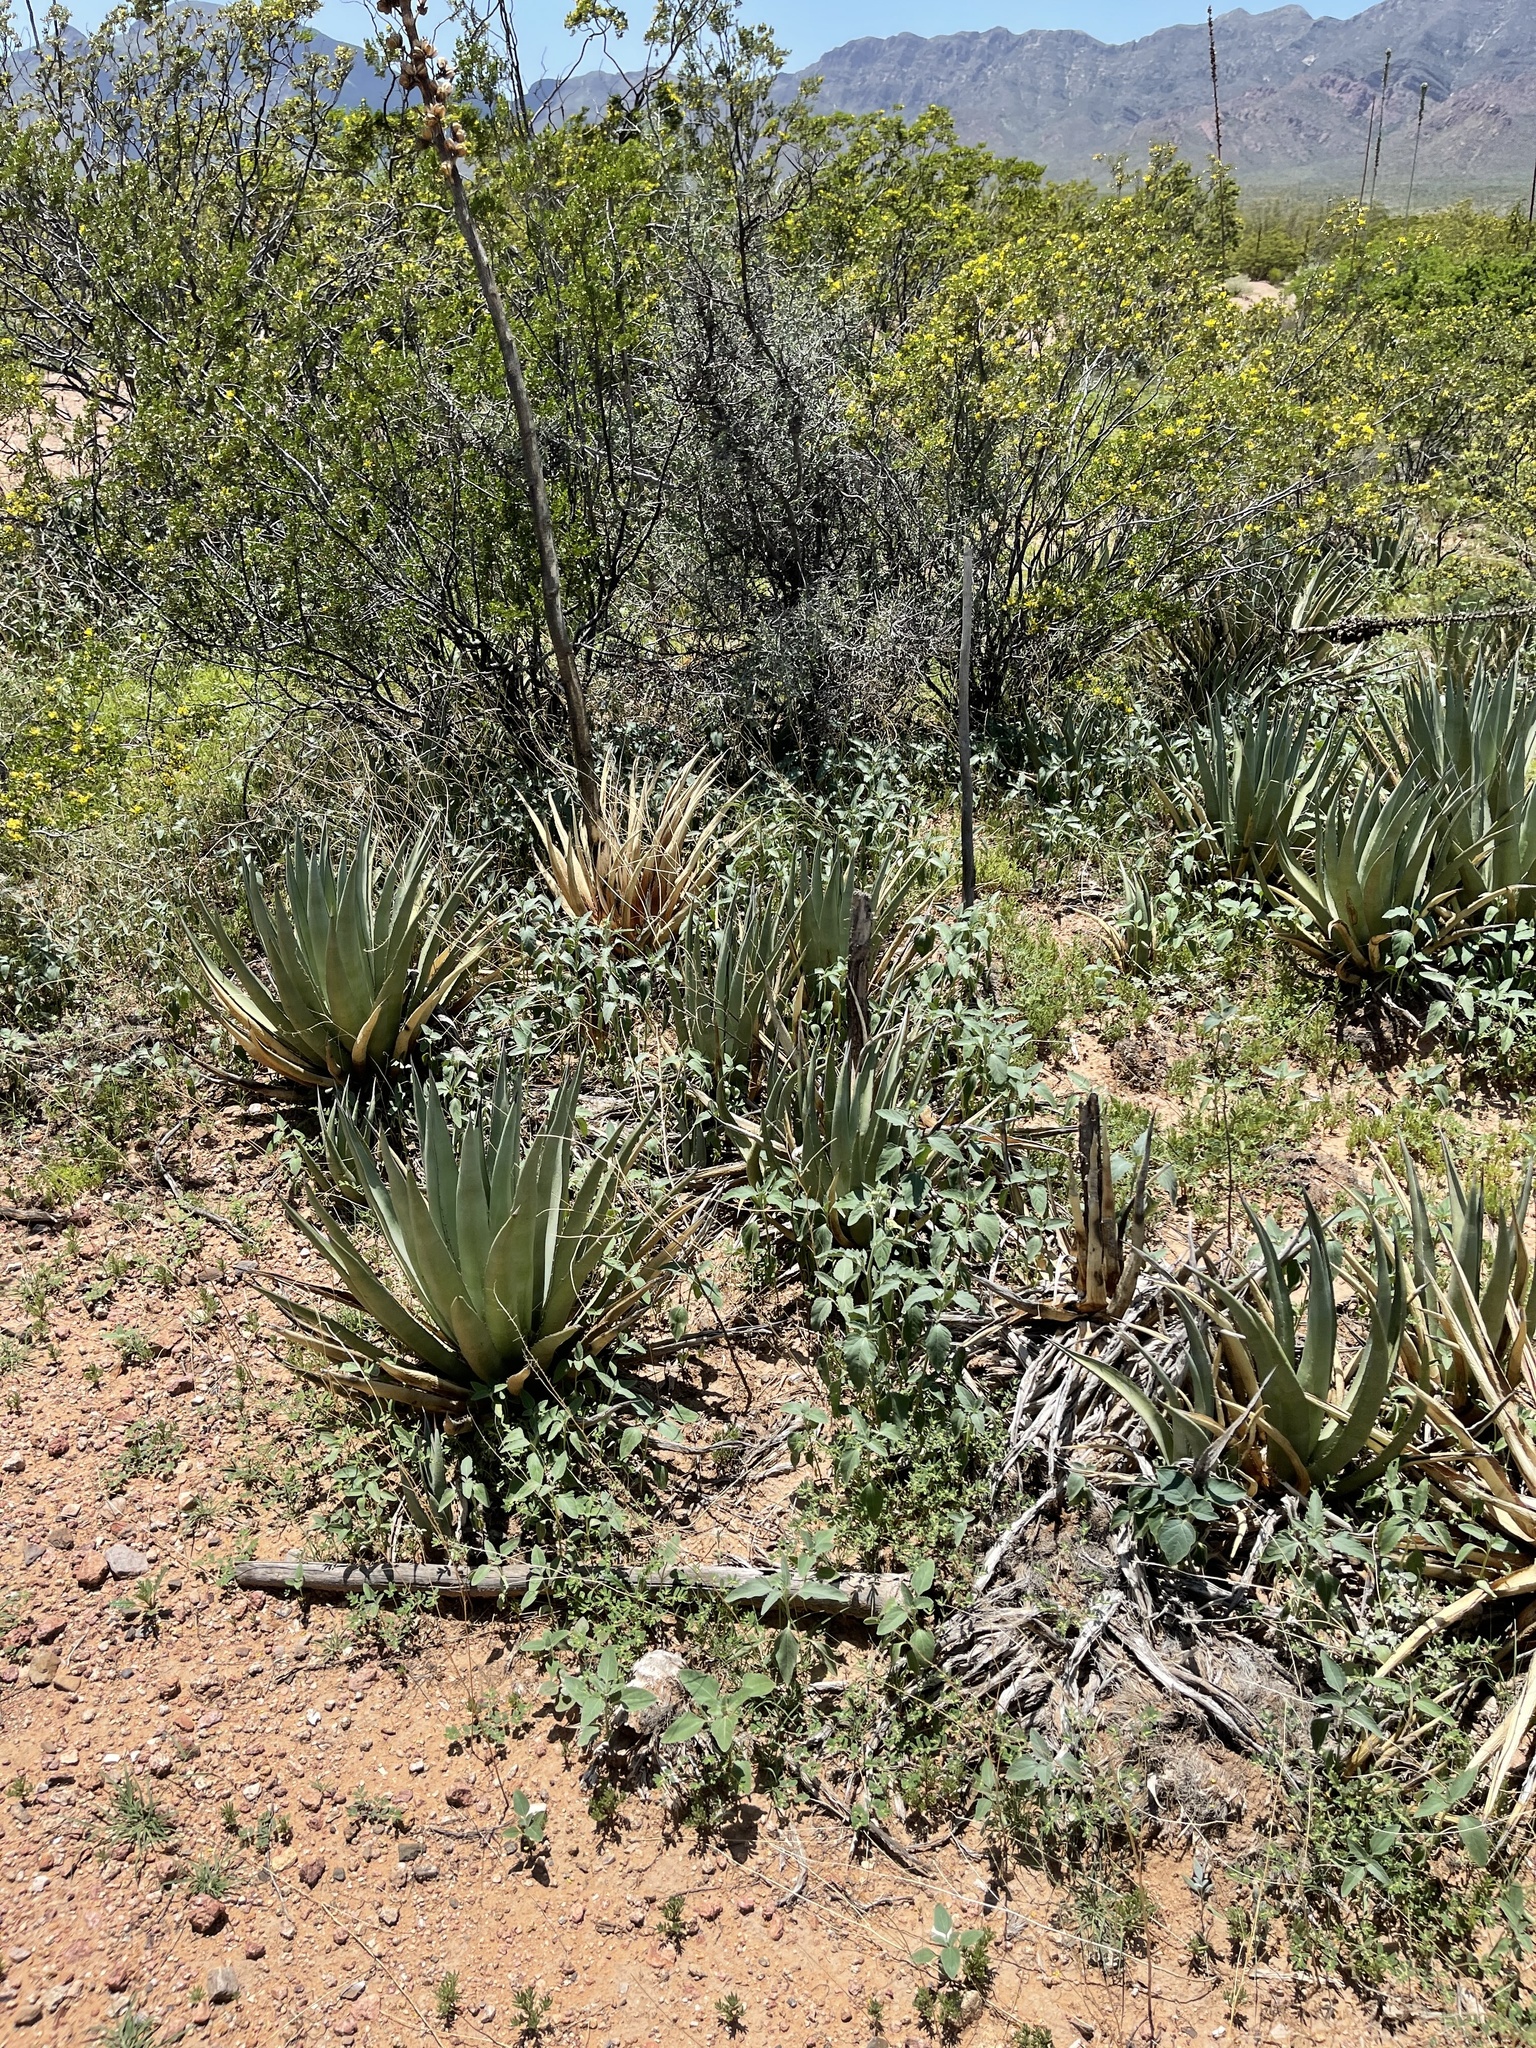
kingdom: Plantae
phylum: Tracheophyta
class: Liliopsida
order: Asparagales
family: Asparagaceae
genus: Agave
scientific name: Agave lechuguilla
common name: Lecheguilla agave
